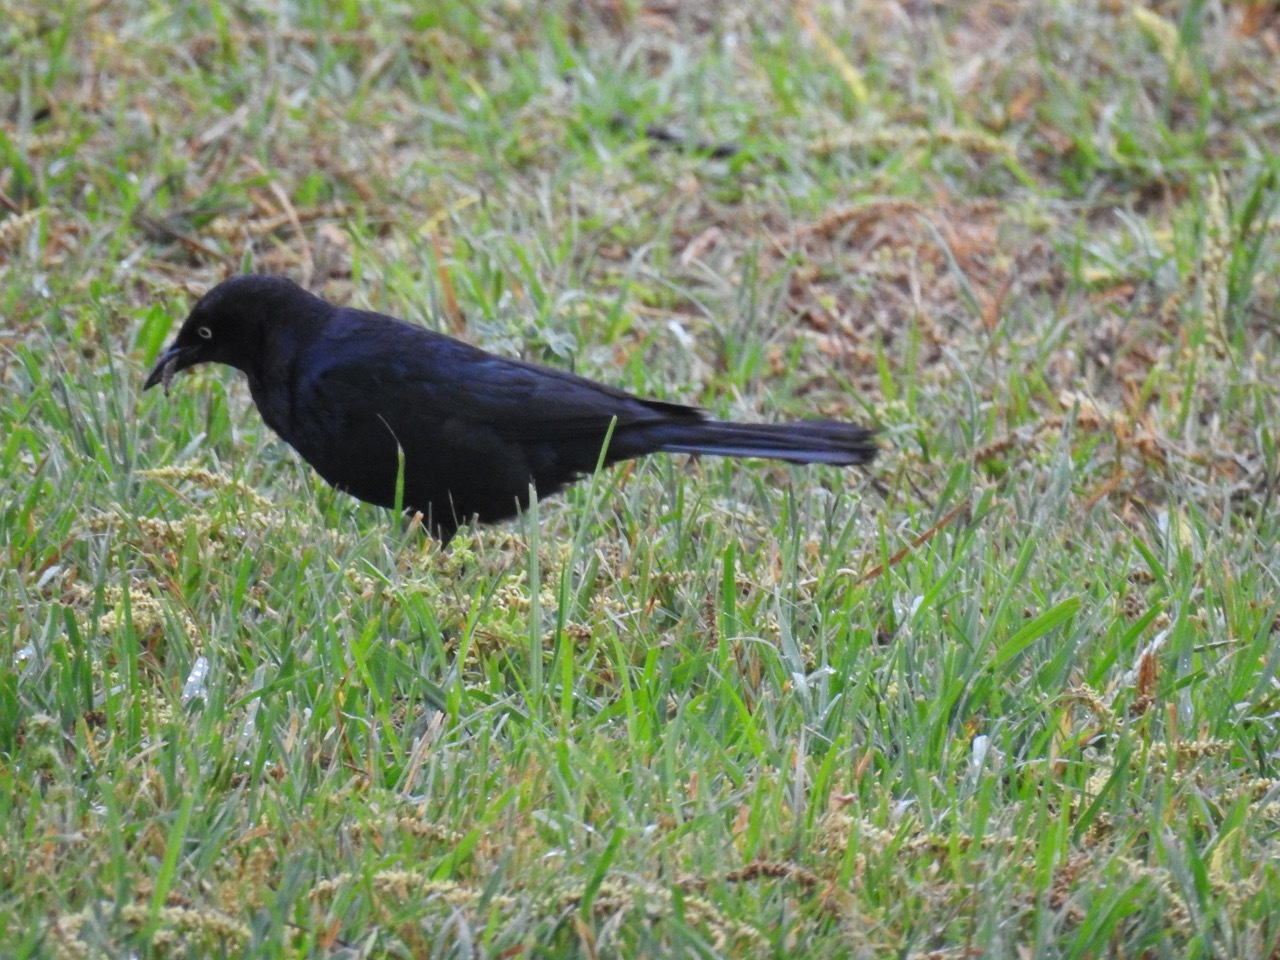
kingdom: Animalia
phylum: Chordata
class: Aves
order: Passeriformes
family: Icteridae
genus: Euphagus
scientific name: Euphagus cyanocephalus
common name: Brewer's blackbird
